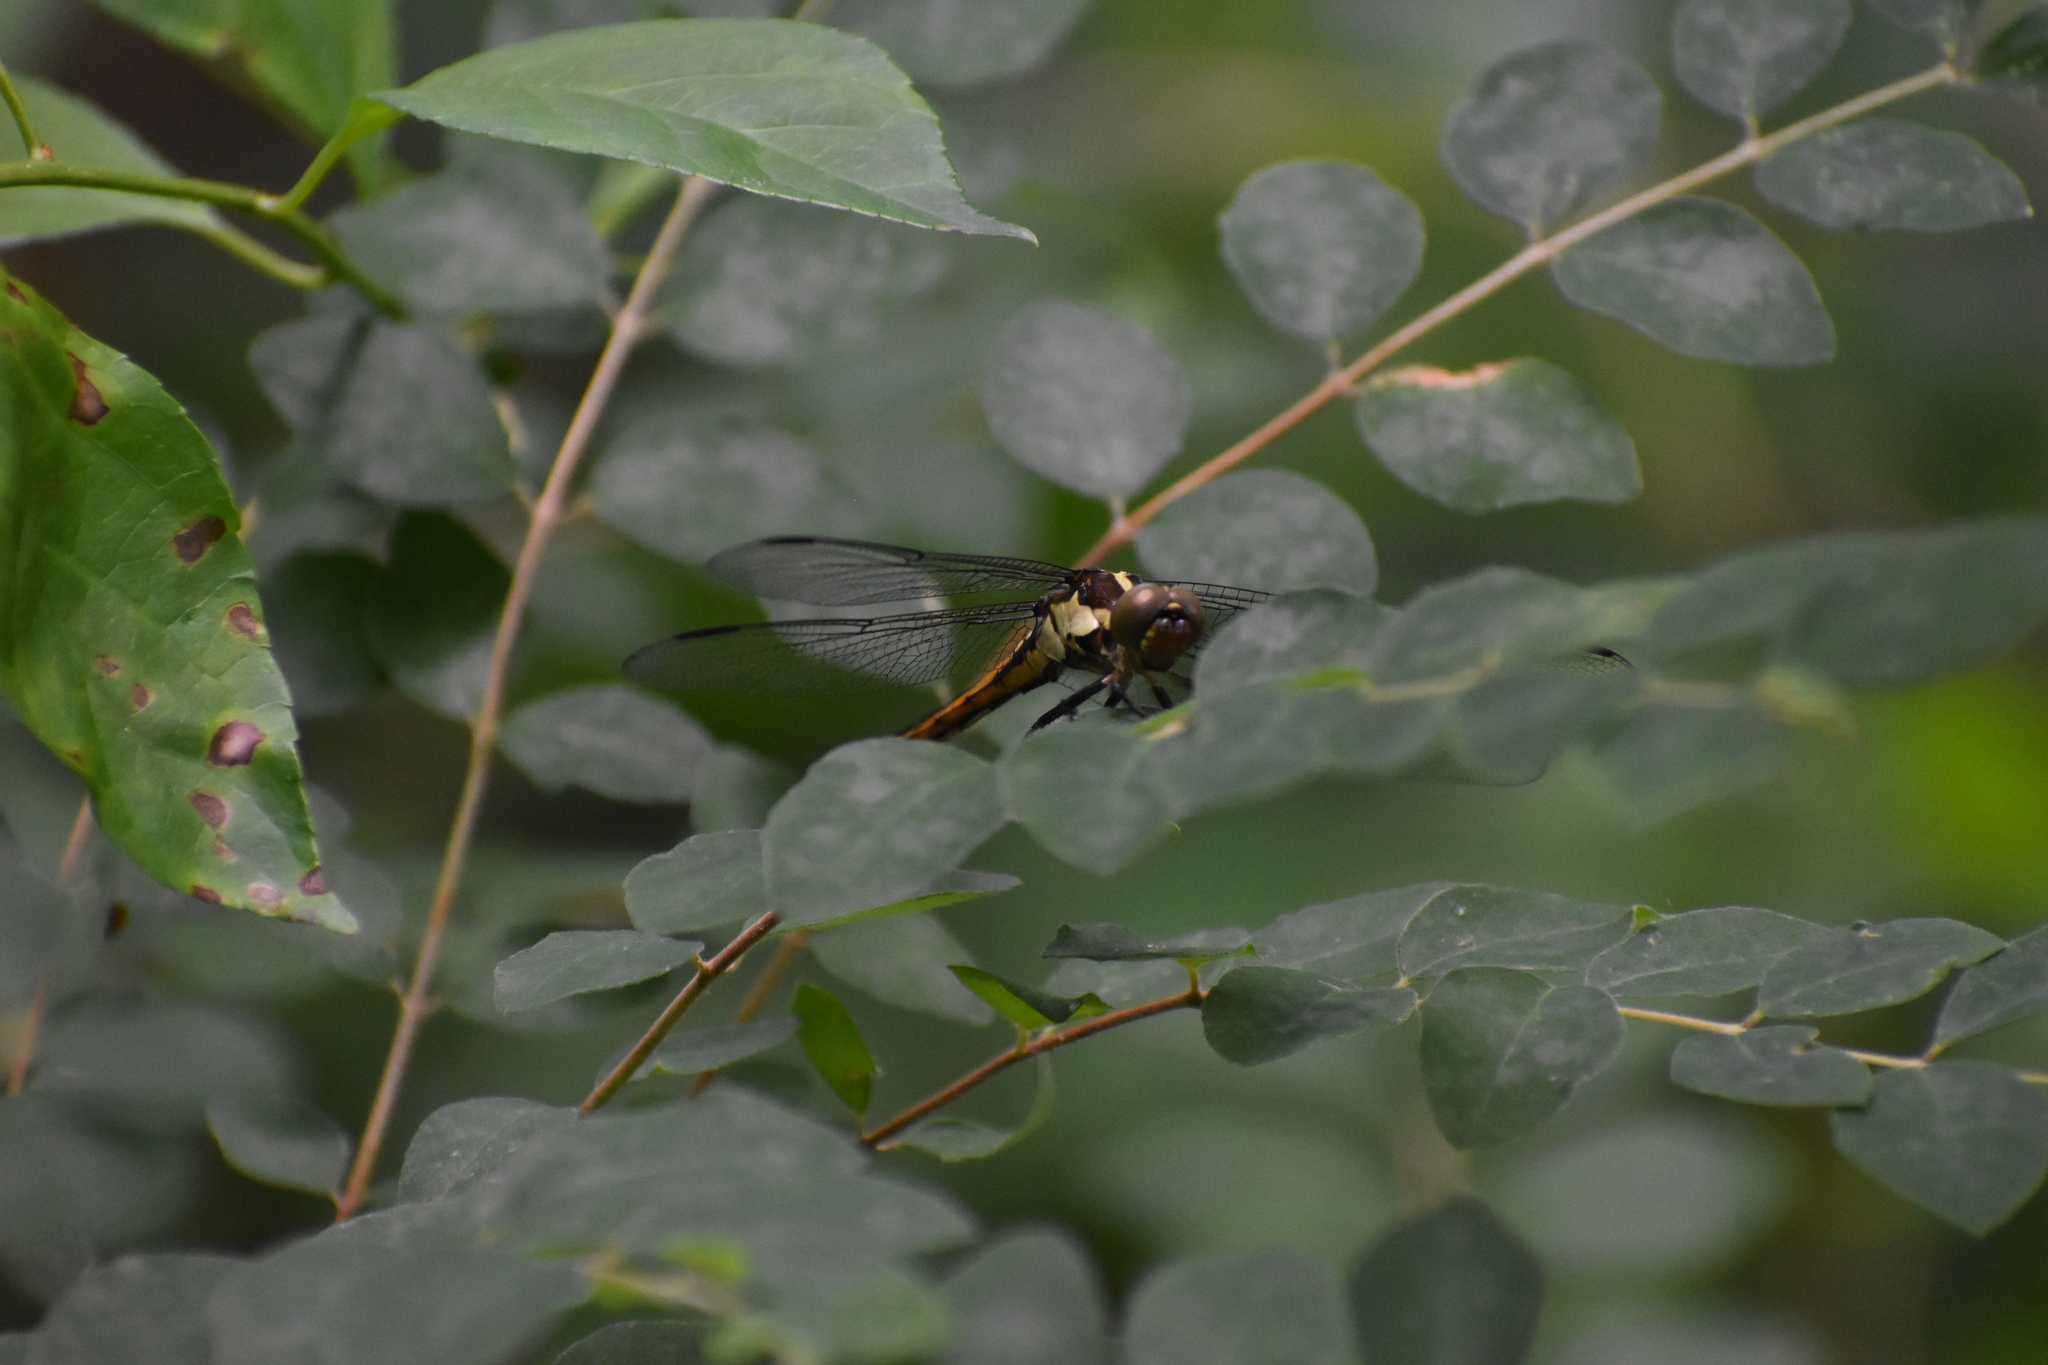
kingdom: Animalia
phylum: Arthropoda
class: Insecta
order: Odonata
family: Libellulidae
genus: Libellula
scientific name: Libellula incesta
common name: Slaty skimmer
